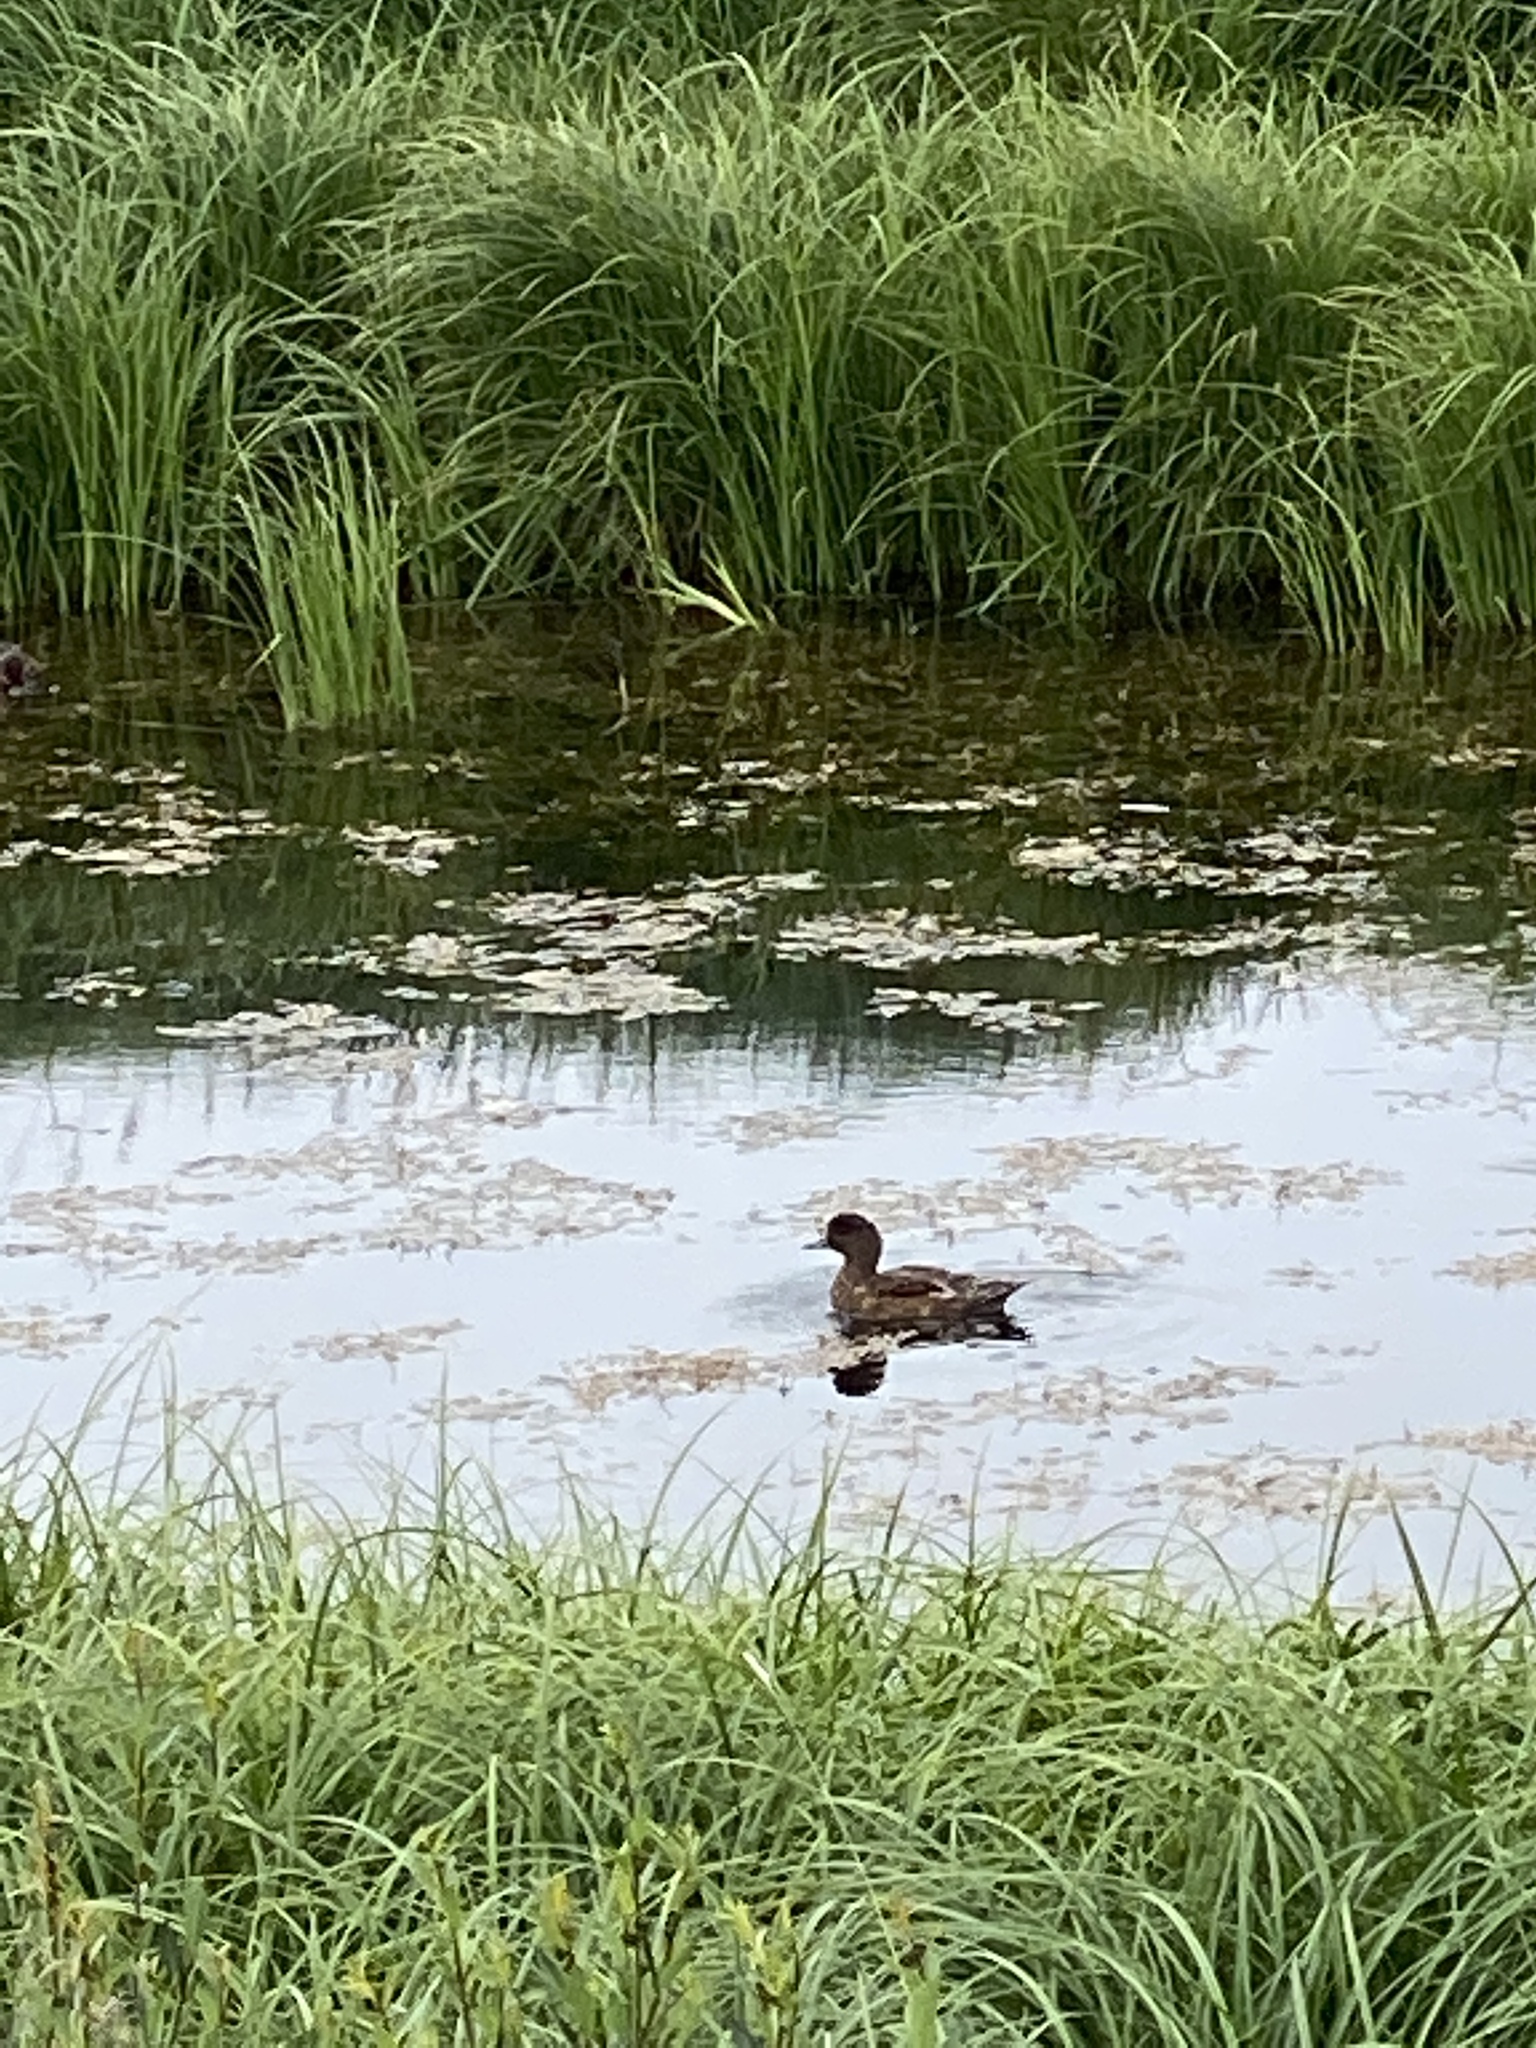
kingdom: Animalia
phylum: Chordata
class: Aves
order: Anseriformes
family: Anatidae
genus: Mareca
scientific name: Mareca penelope
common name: Eurasian wigeon
